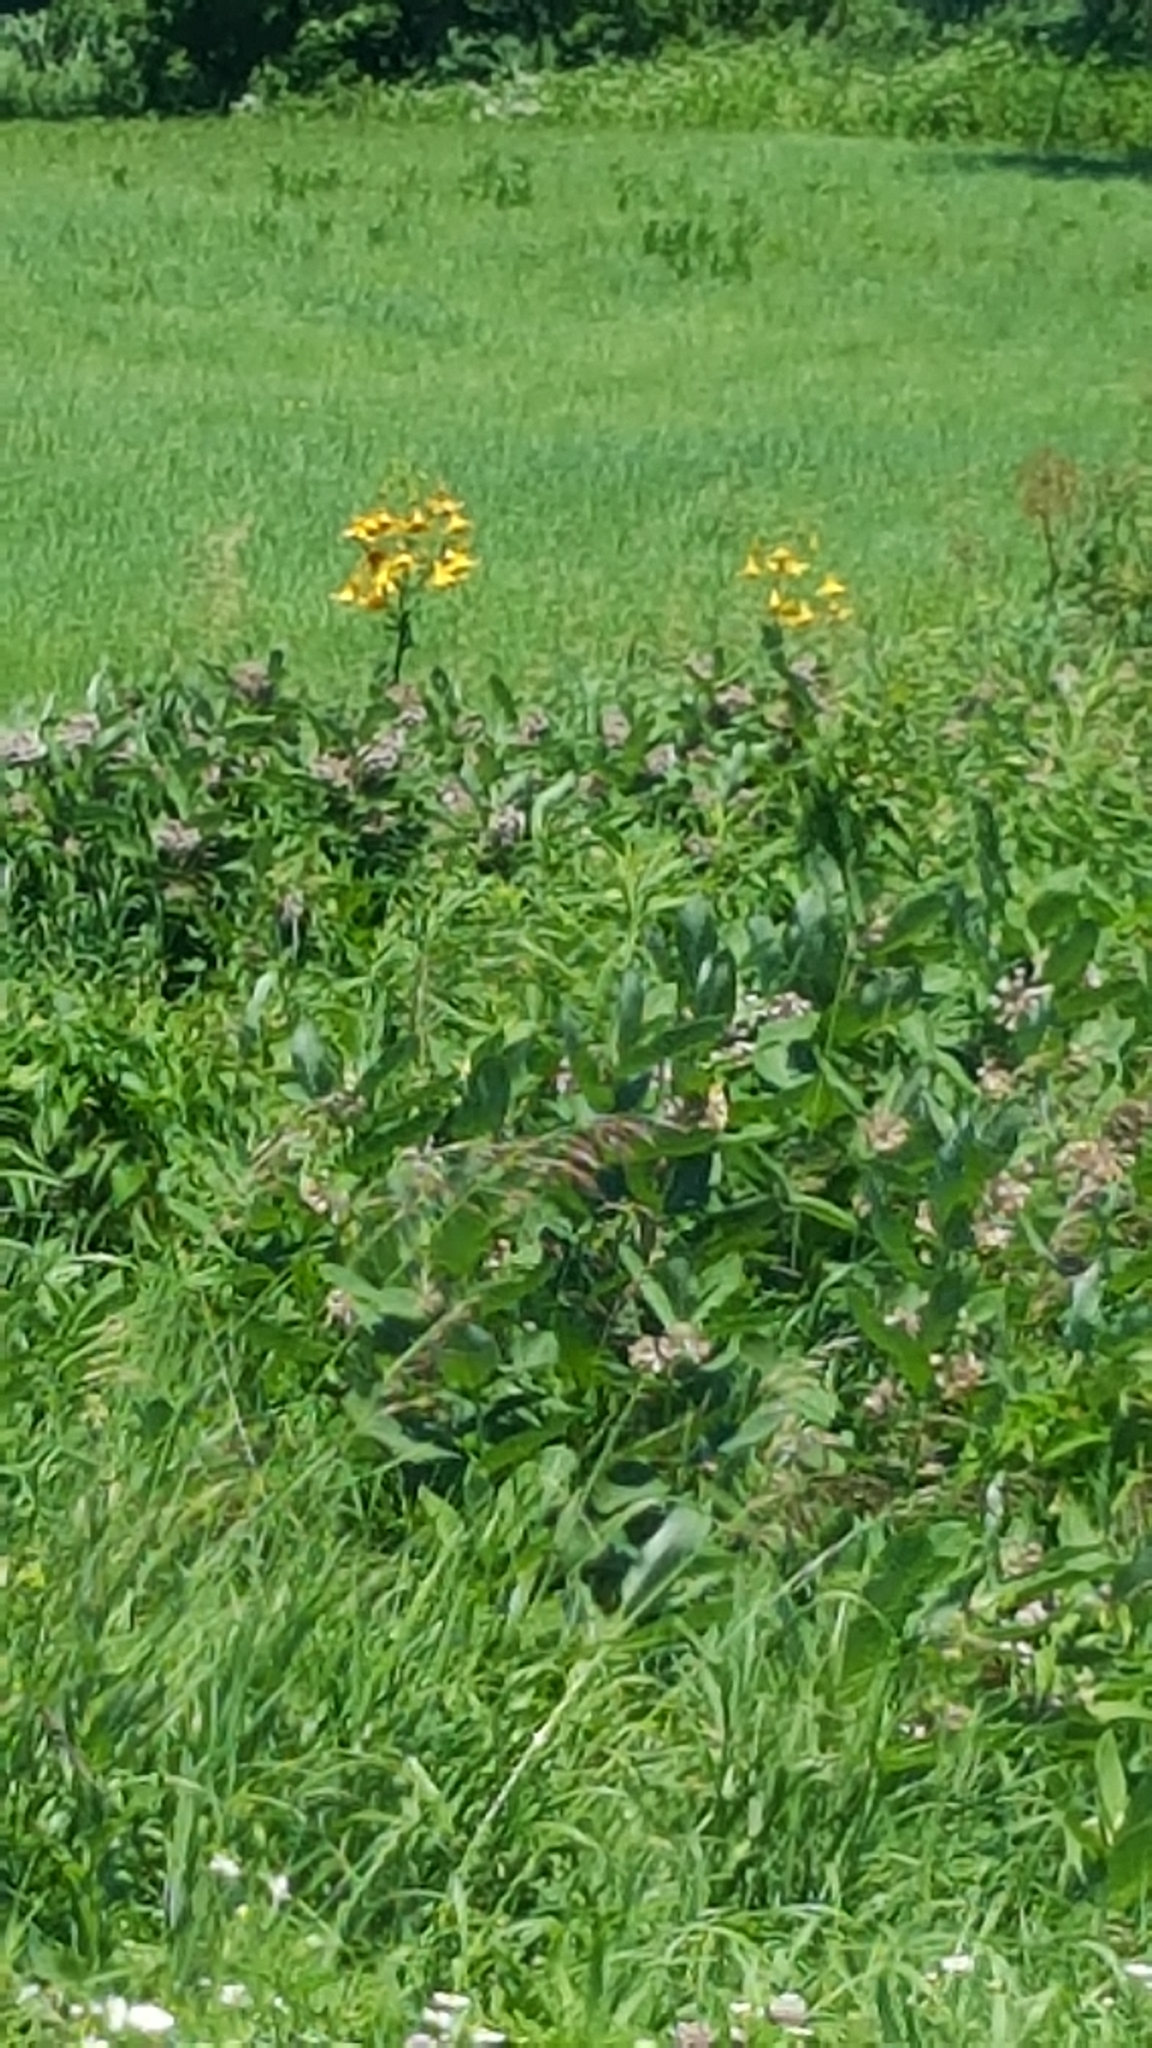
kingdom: Plantae
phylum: Tracheophyta
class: Liliopsida
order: Liliales
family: Liliaceae
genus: Lilium
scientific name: Lilium canadense
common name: Canada lily
